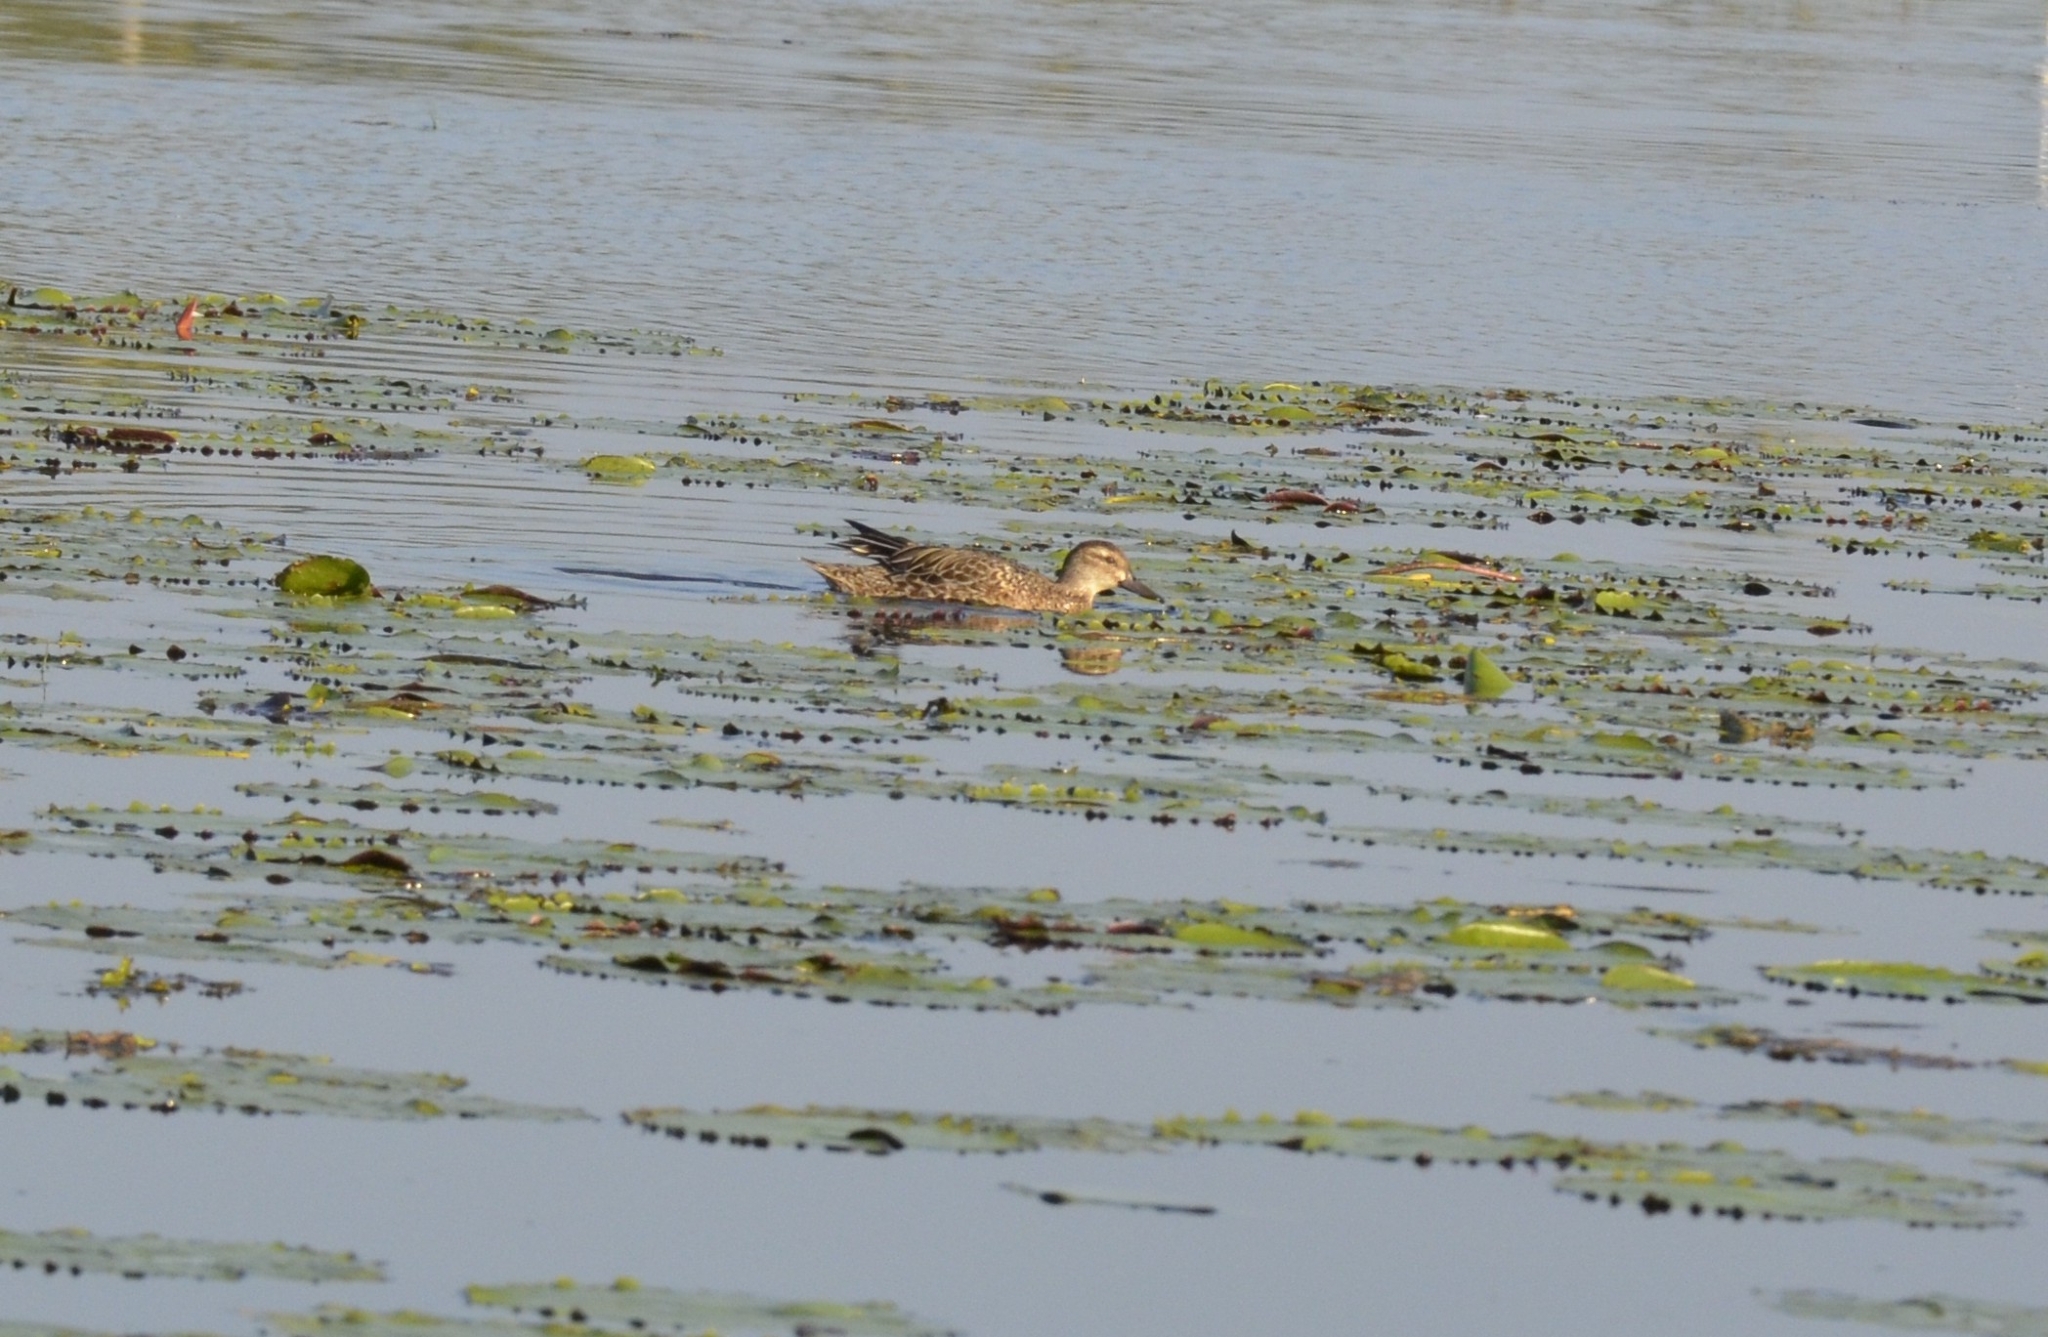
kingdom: Animalia
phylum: Chordata
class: Aves
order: Anseriformes
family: Anatidae
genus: Spatula
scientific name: Spatula querquedula
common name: Garganey
